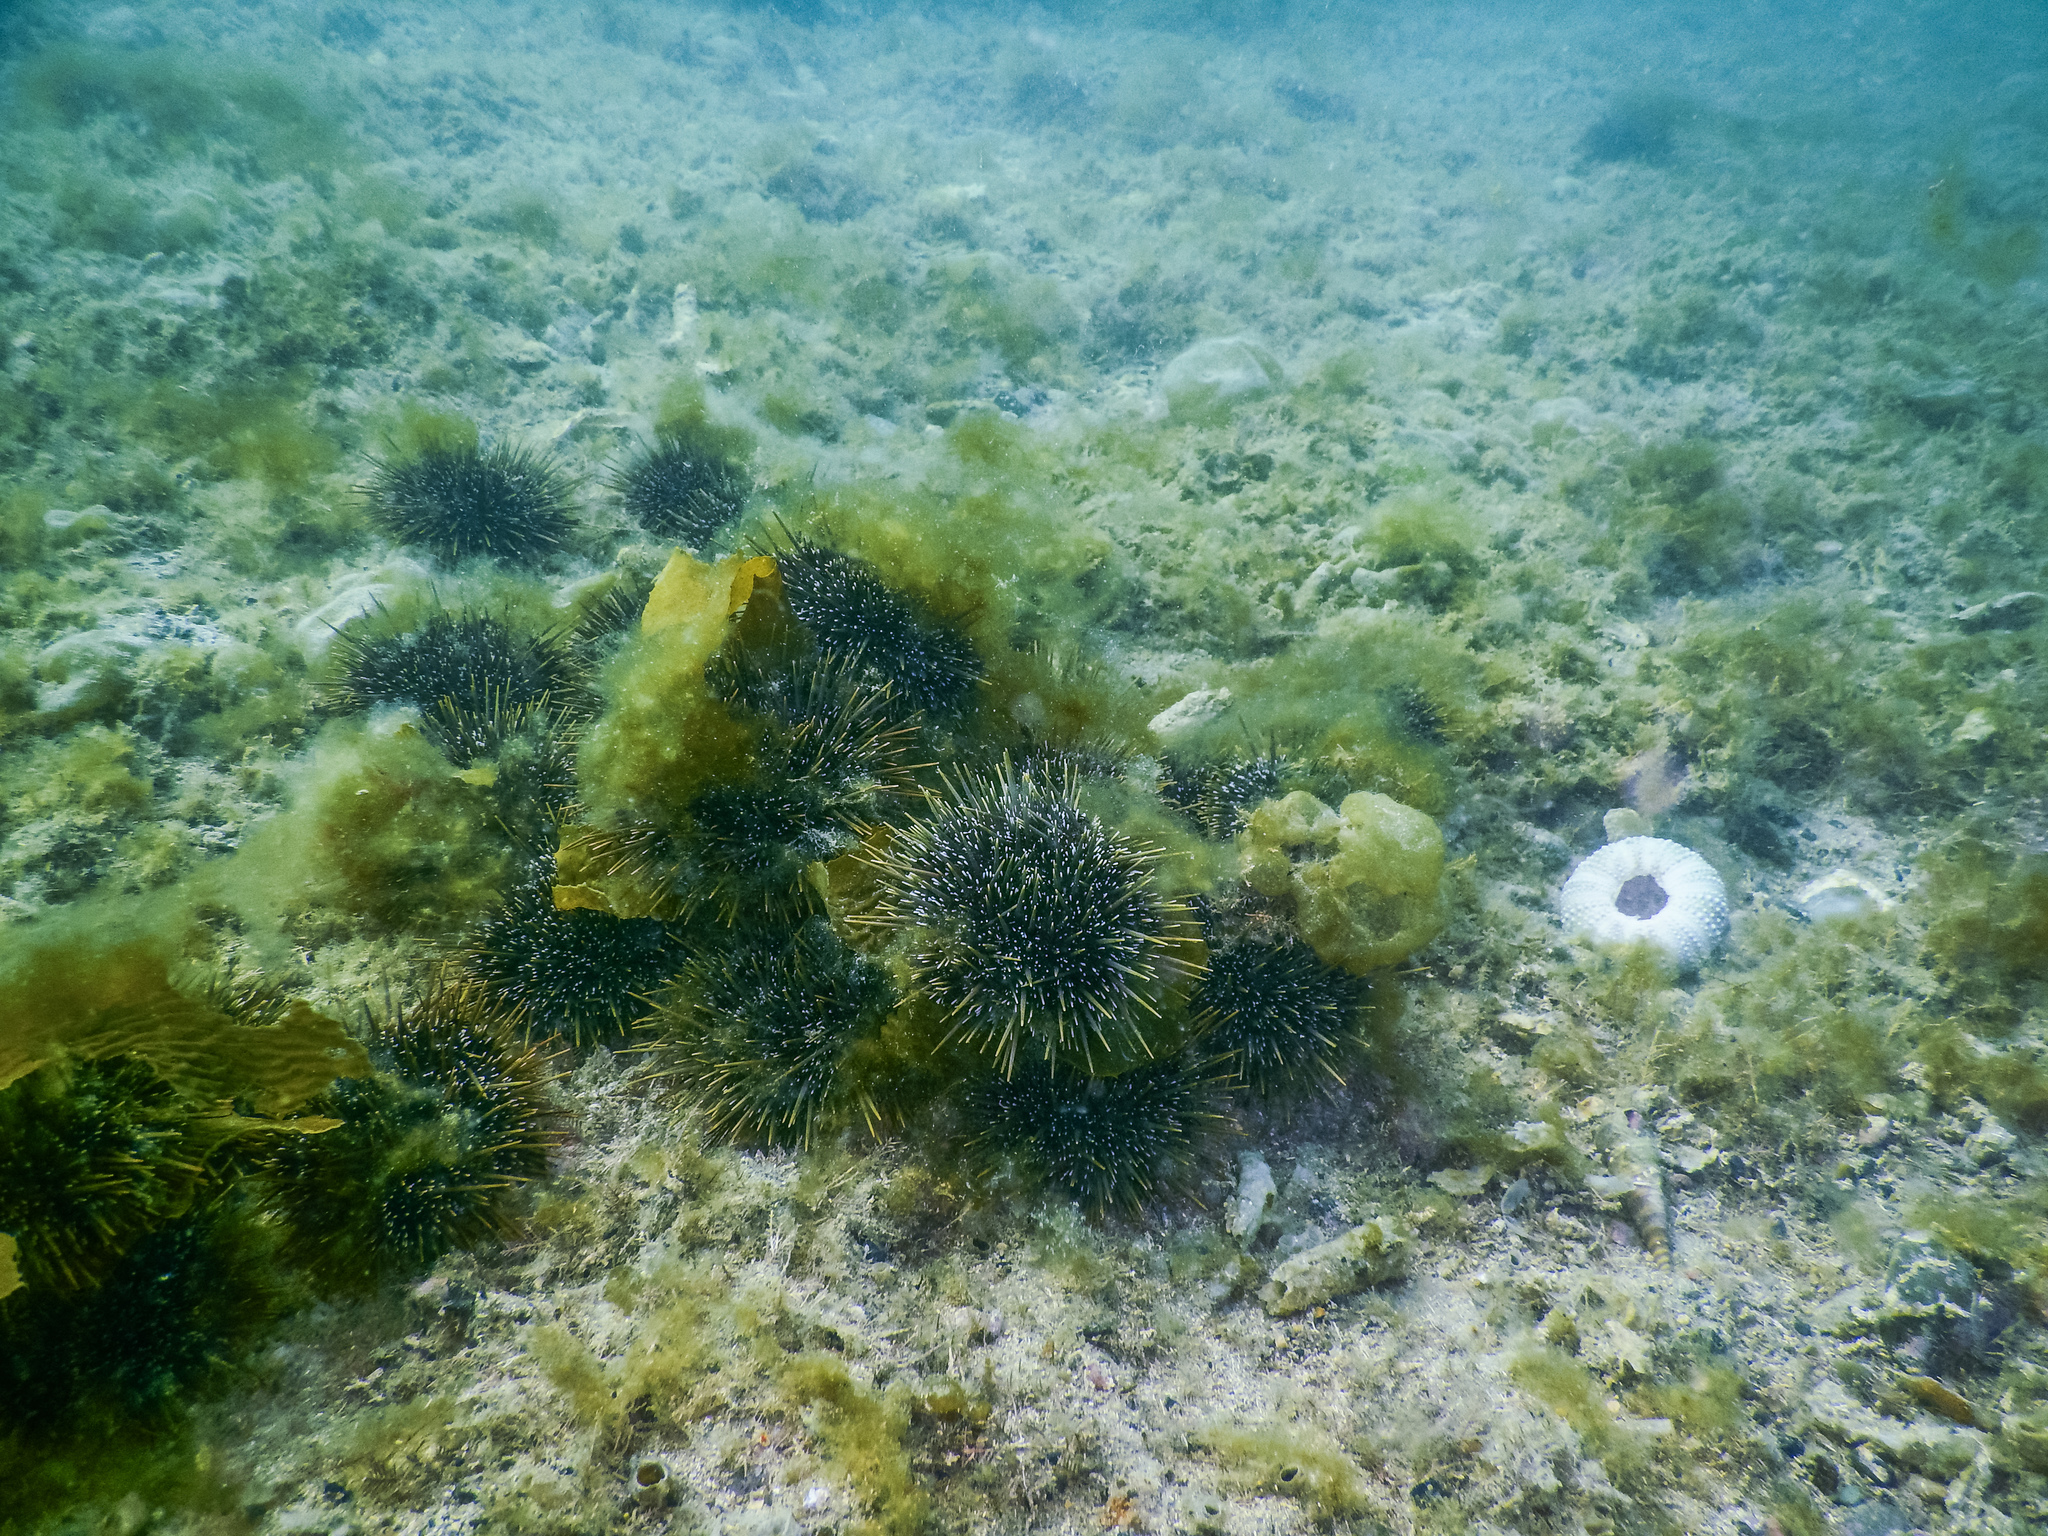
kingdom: Animalia
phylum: Echinodermata
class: Echinoidea
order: Camarodonta
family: Echinometridae
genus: Evechinus
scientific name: Evechinus chloroticus
